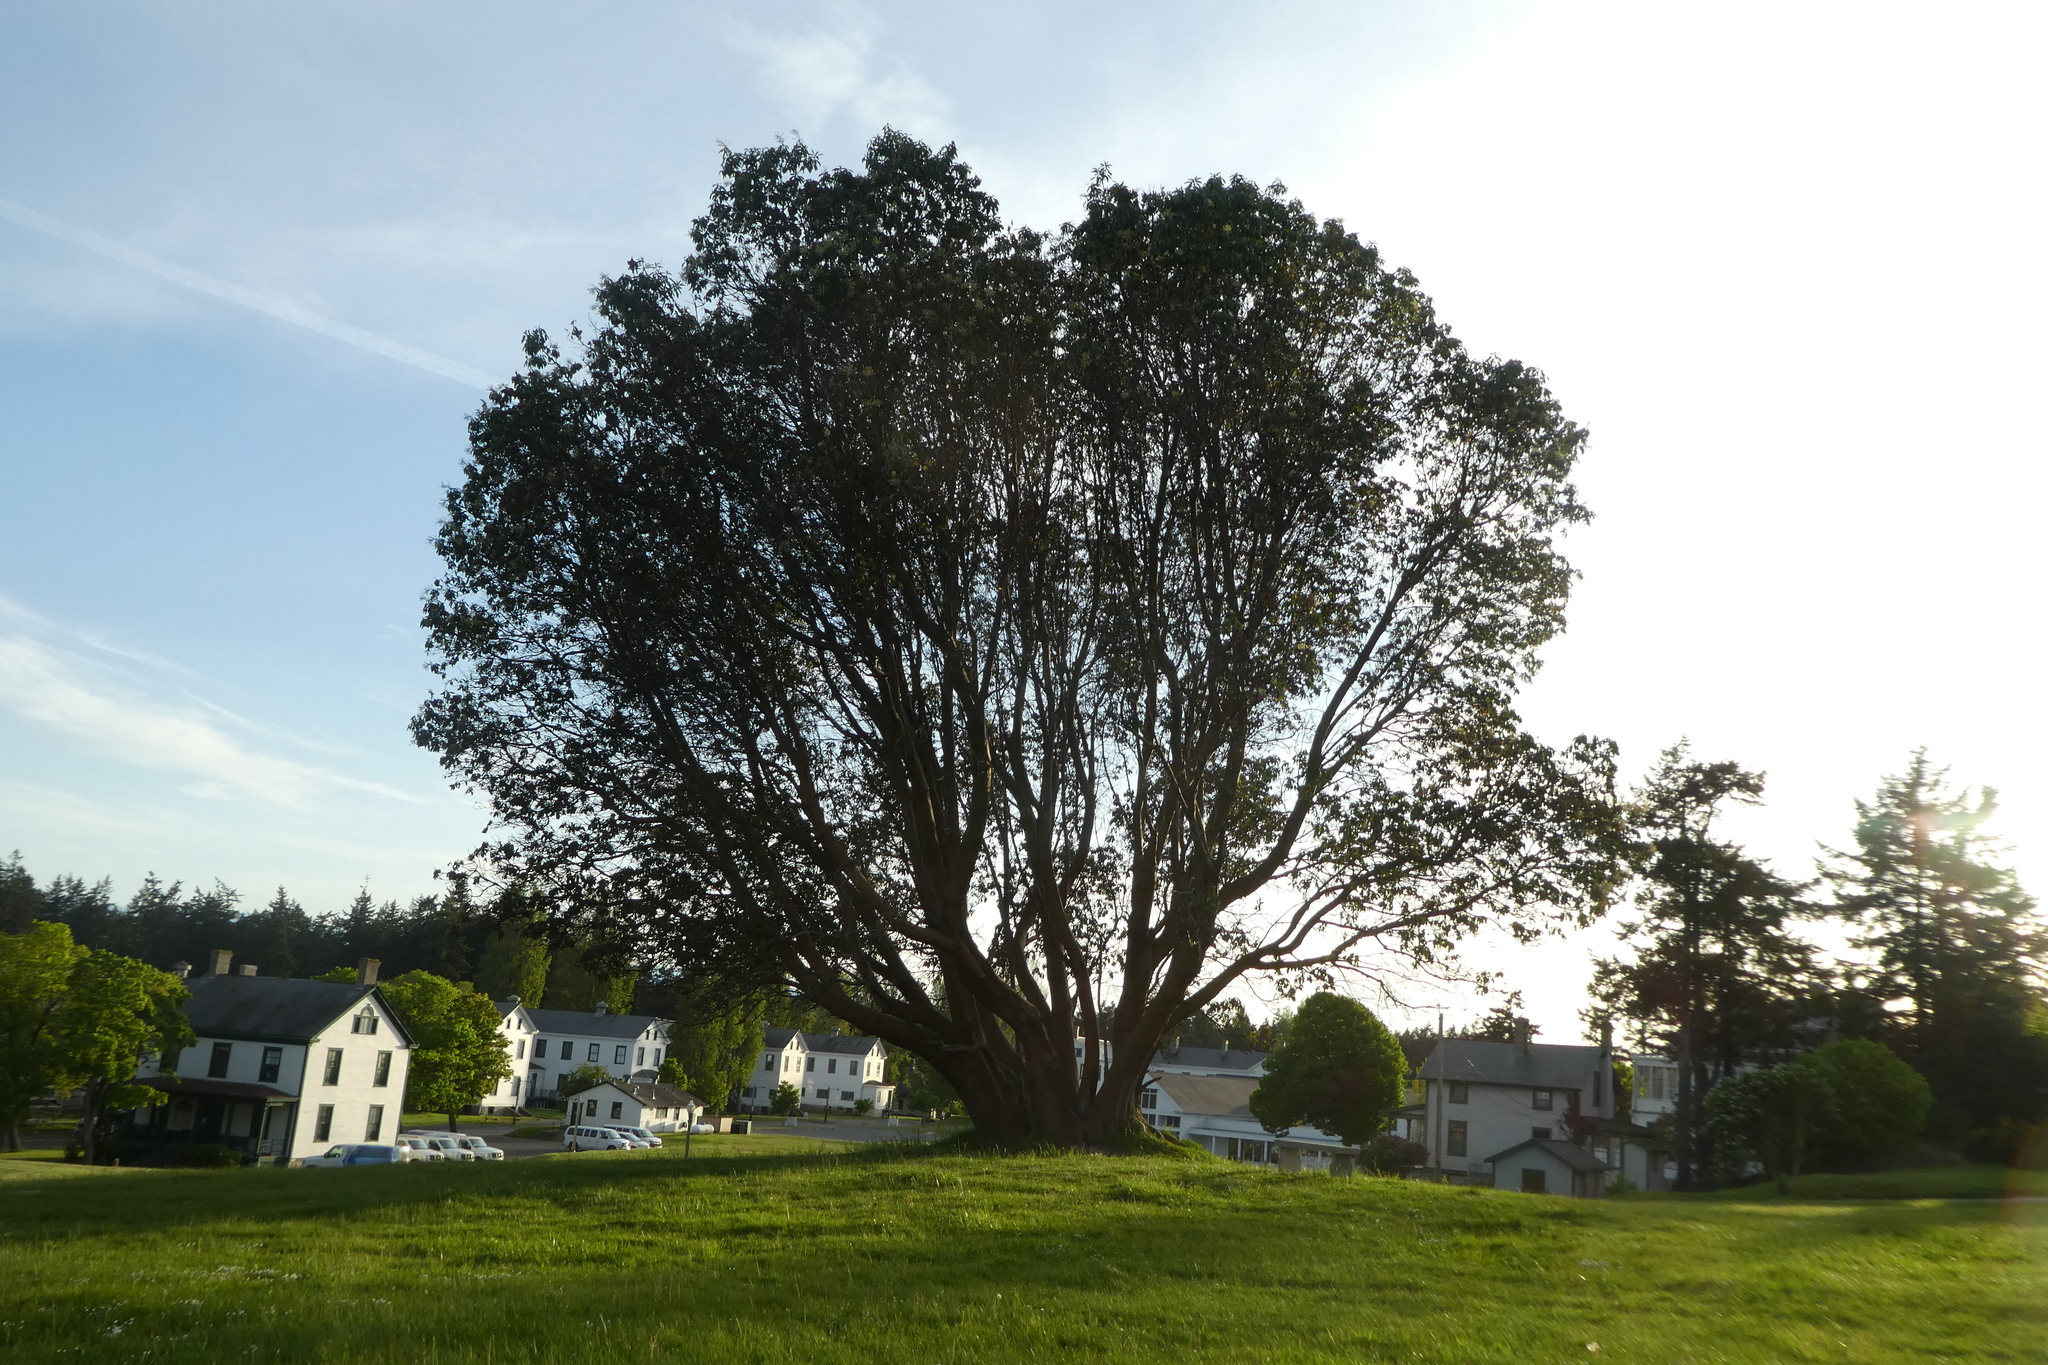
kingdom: Plantae
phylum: Tracheophyta
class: Magnoliopsida
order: Ericales
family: Ericaceae
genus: Arbutus
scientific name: Arbutus menziesii
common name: Pacific madrone
